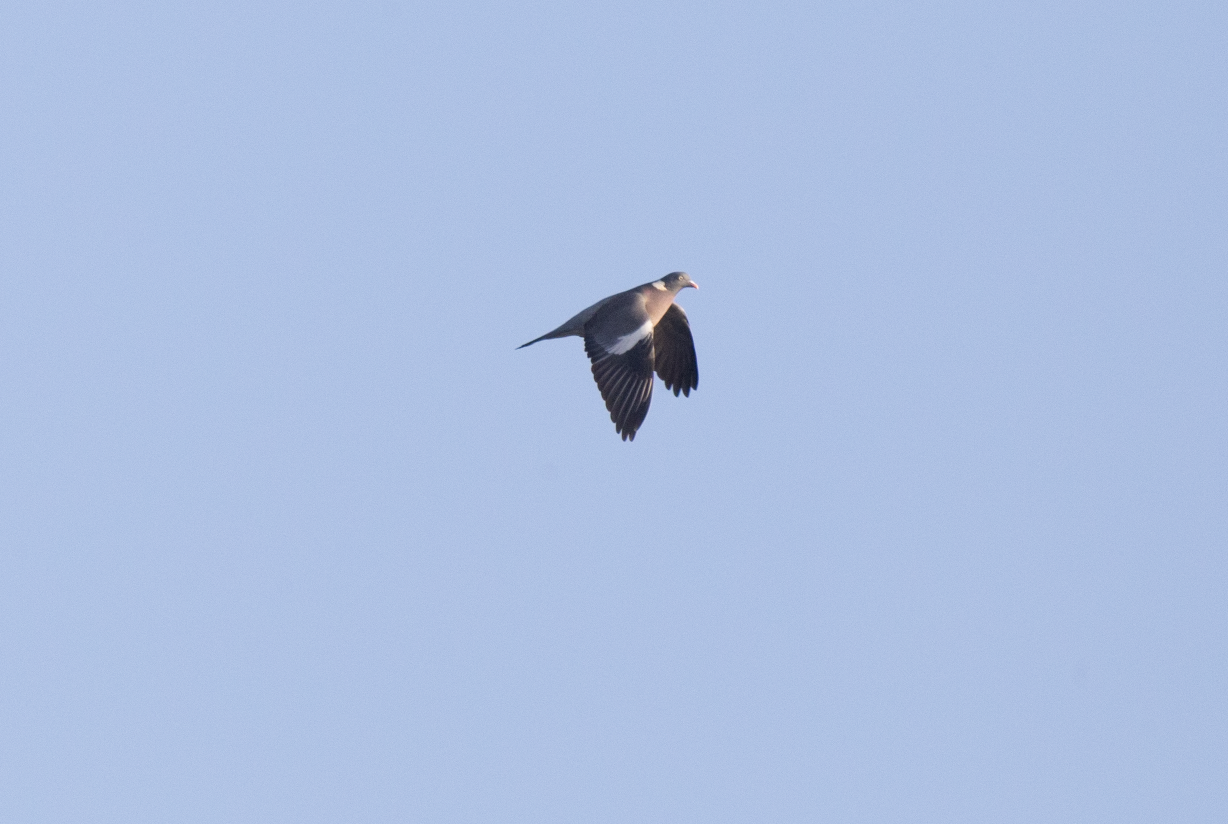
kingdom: Animalia
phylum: Chordata
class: Aves
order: Columbiformes
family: Columbidae
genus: Columba
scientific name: Columba palumbus
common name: Common wood pigeon
